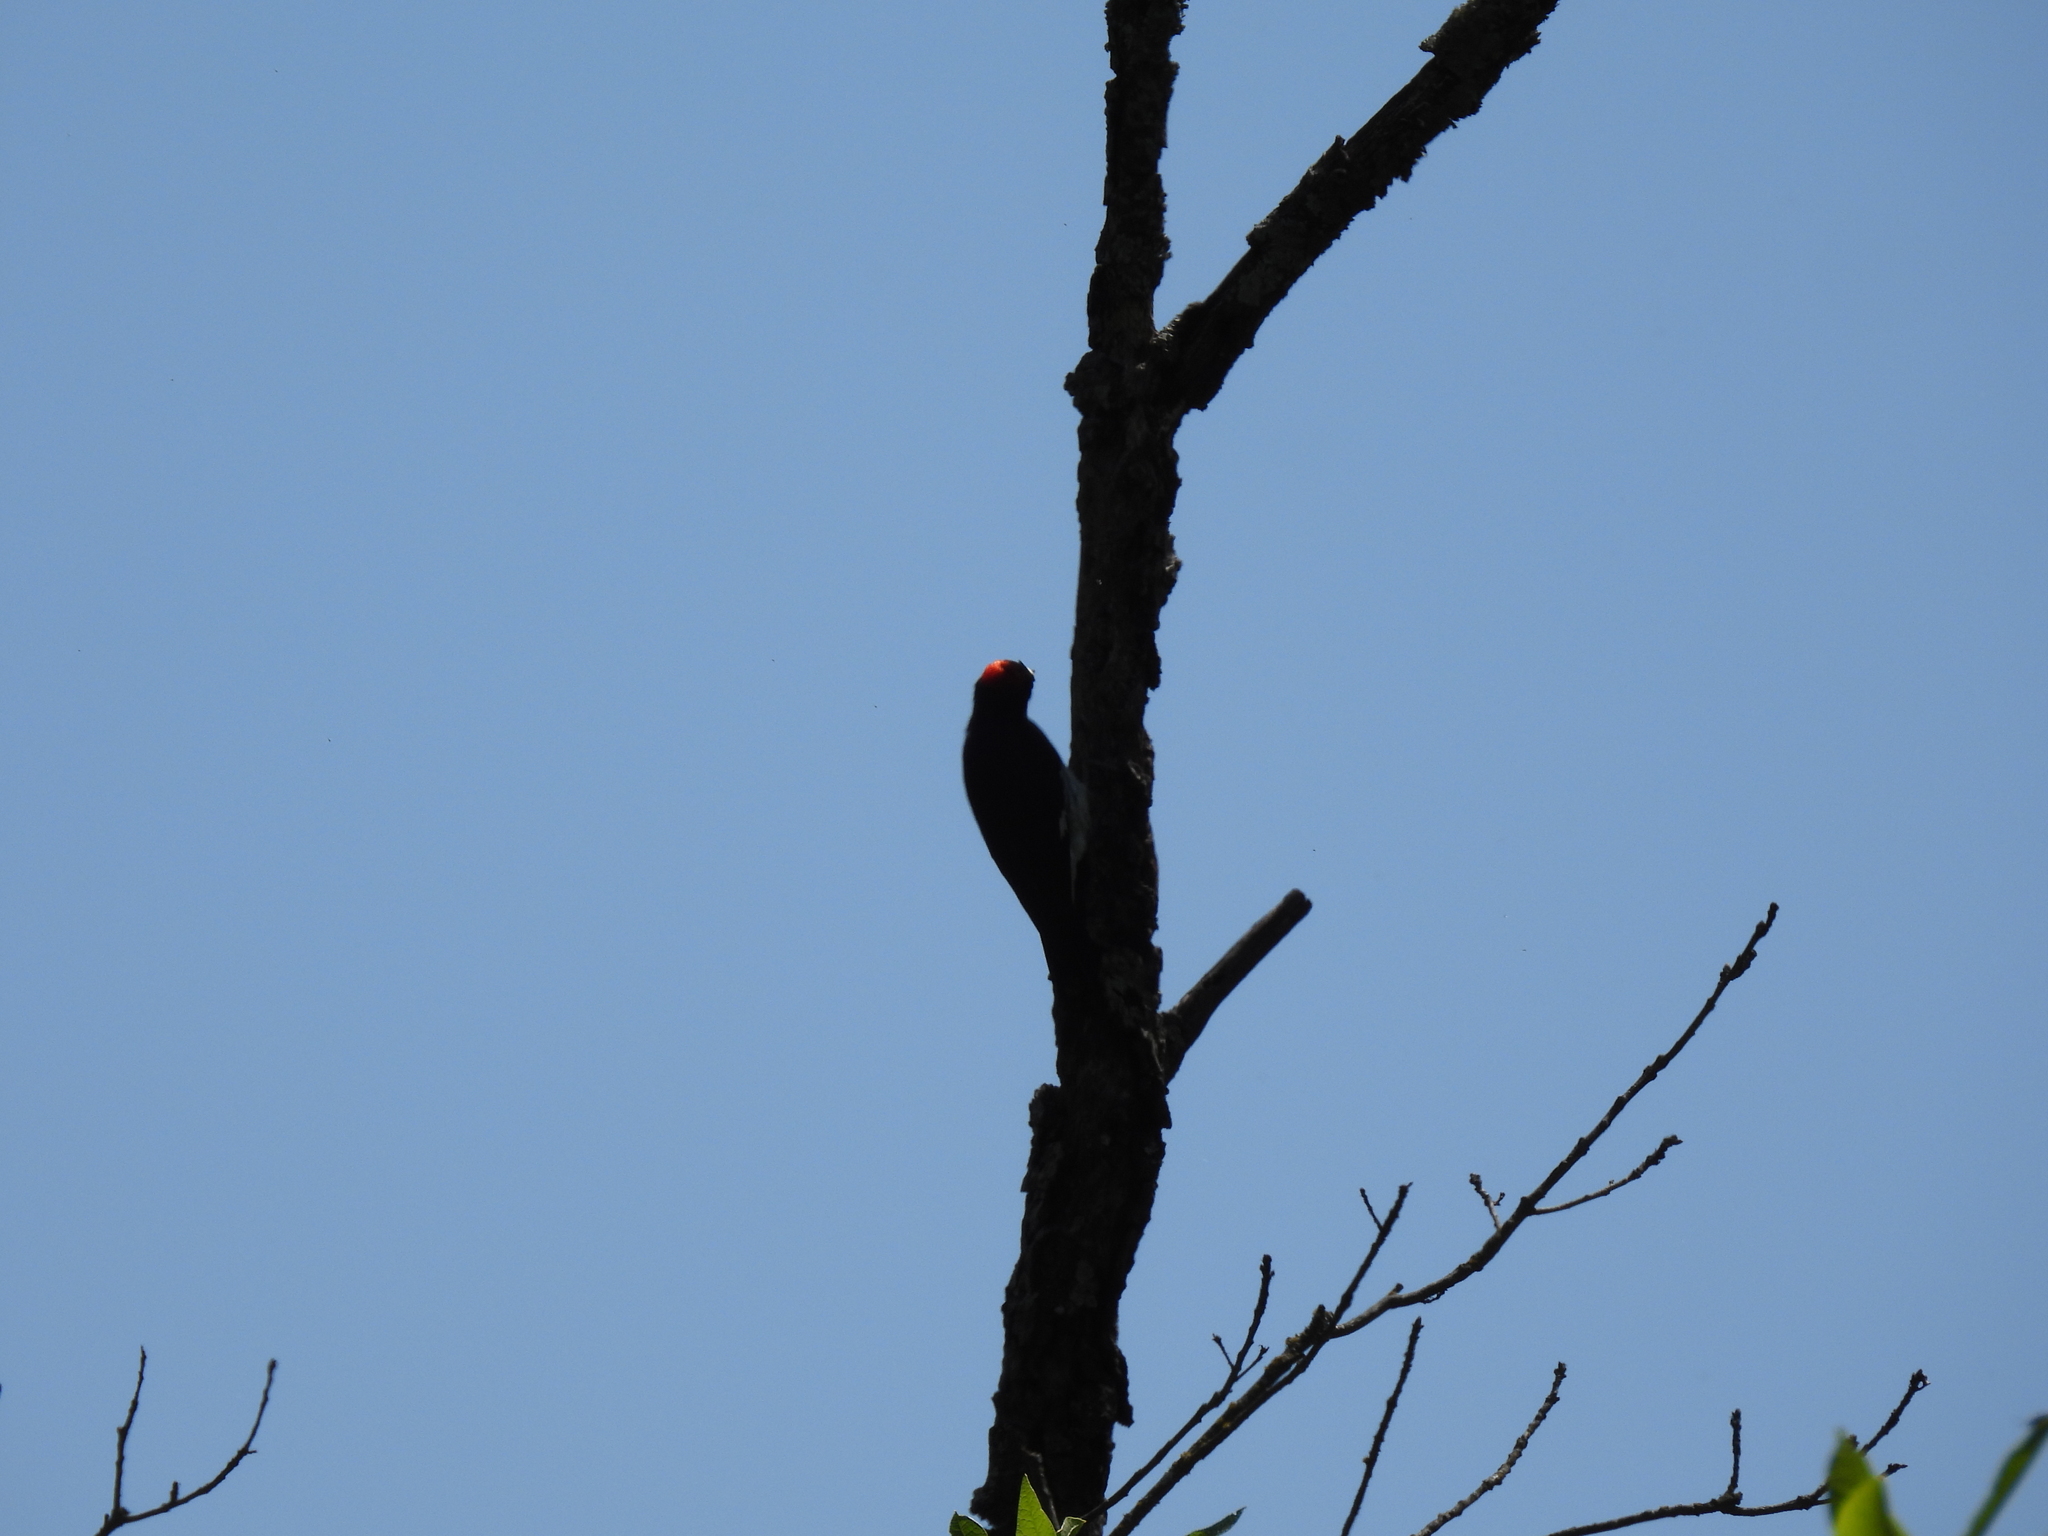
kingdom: Animalia
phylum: Chordata
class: Aves
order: Piciformes
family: Picidae
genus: Melanerpes
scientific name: Melanerpes formicivorus
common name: Acorn woodpecker
